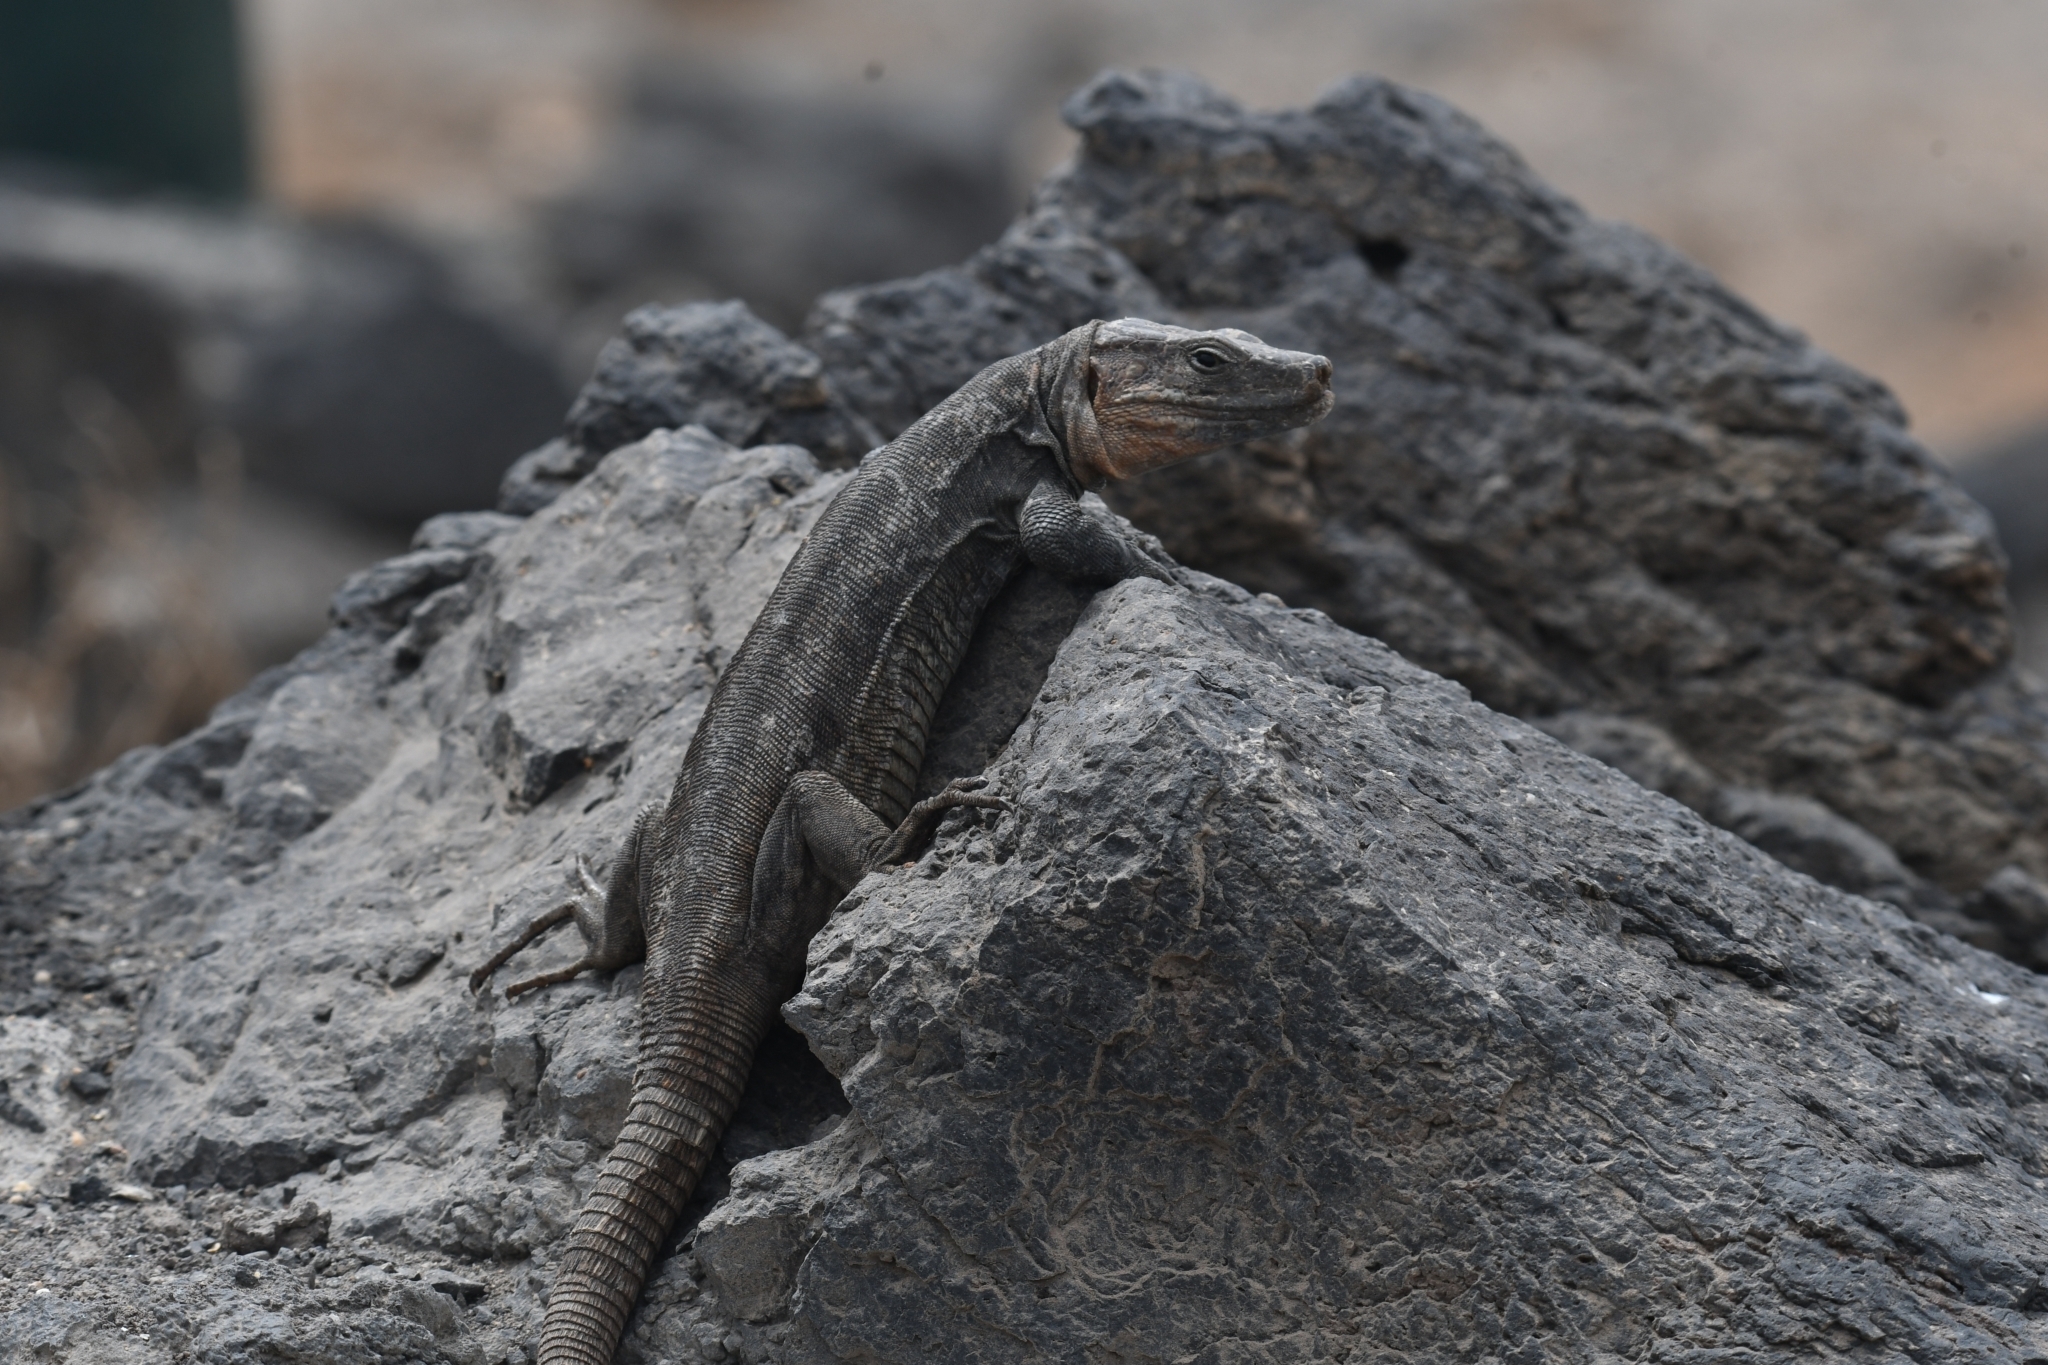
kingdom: Animalia
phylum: Chordata
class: Squamata
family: Lacertidae
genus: Gallotia
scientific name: Gallotia stehlini
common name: Gran canaria giant lizard
